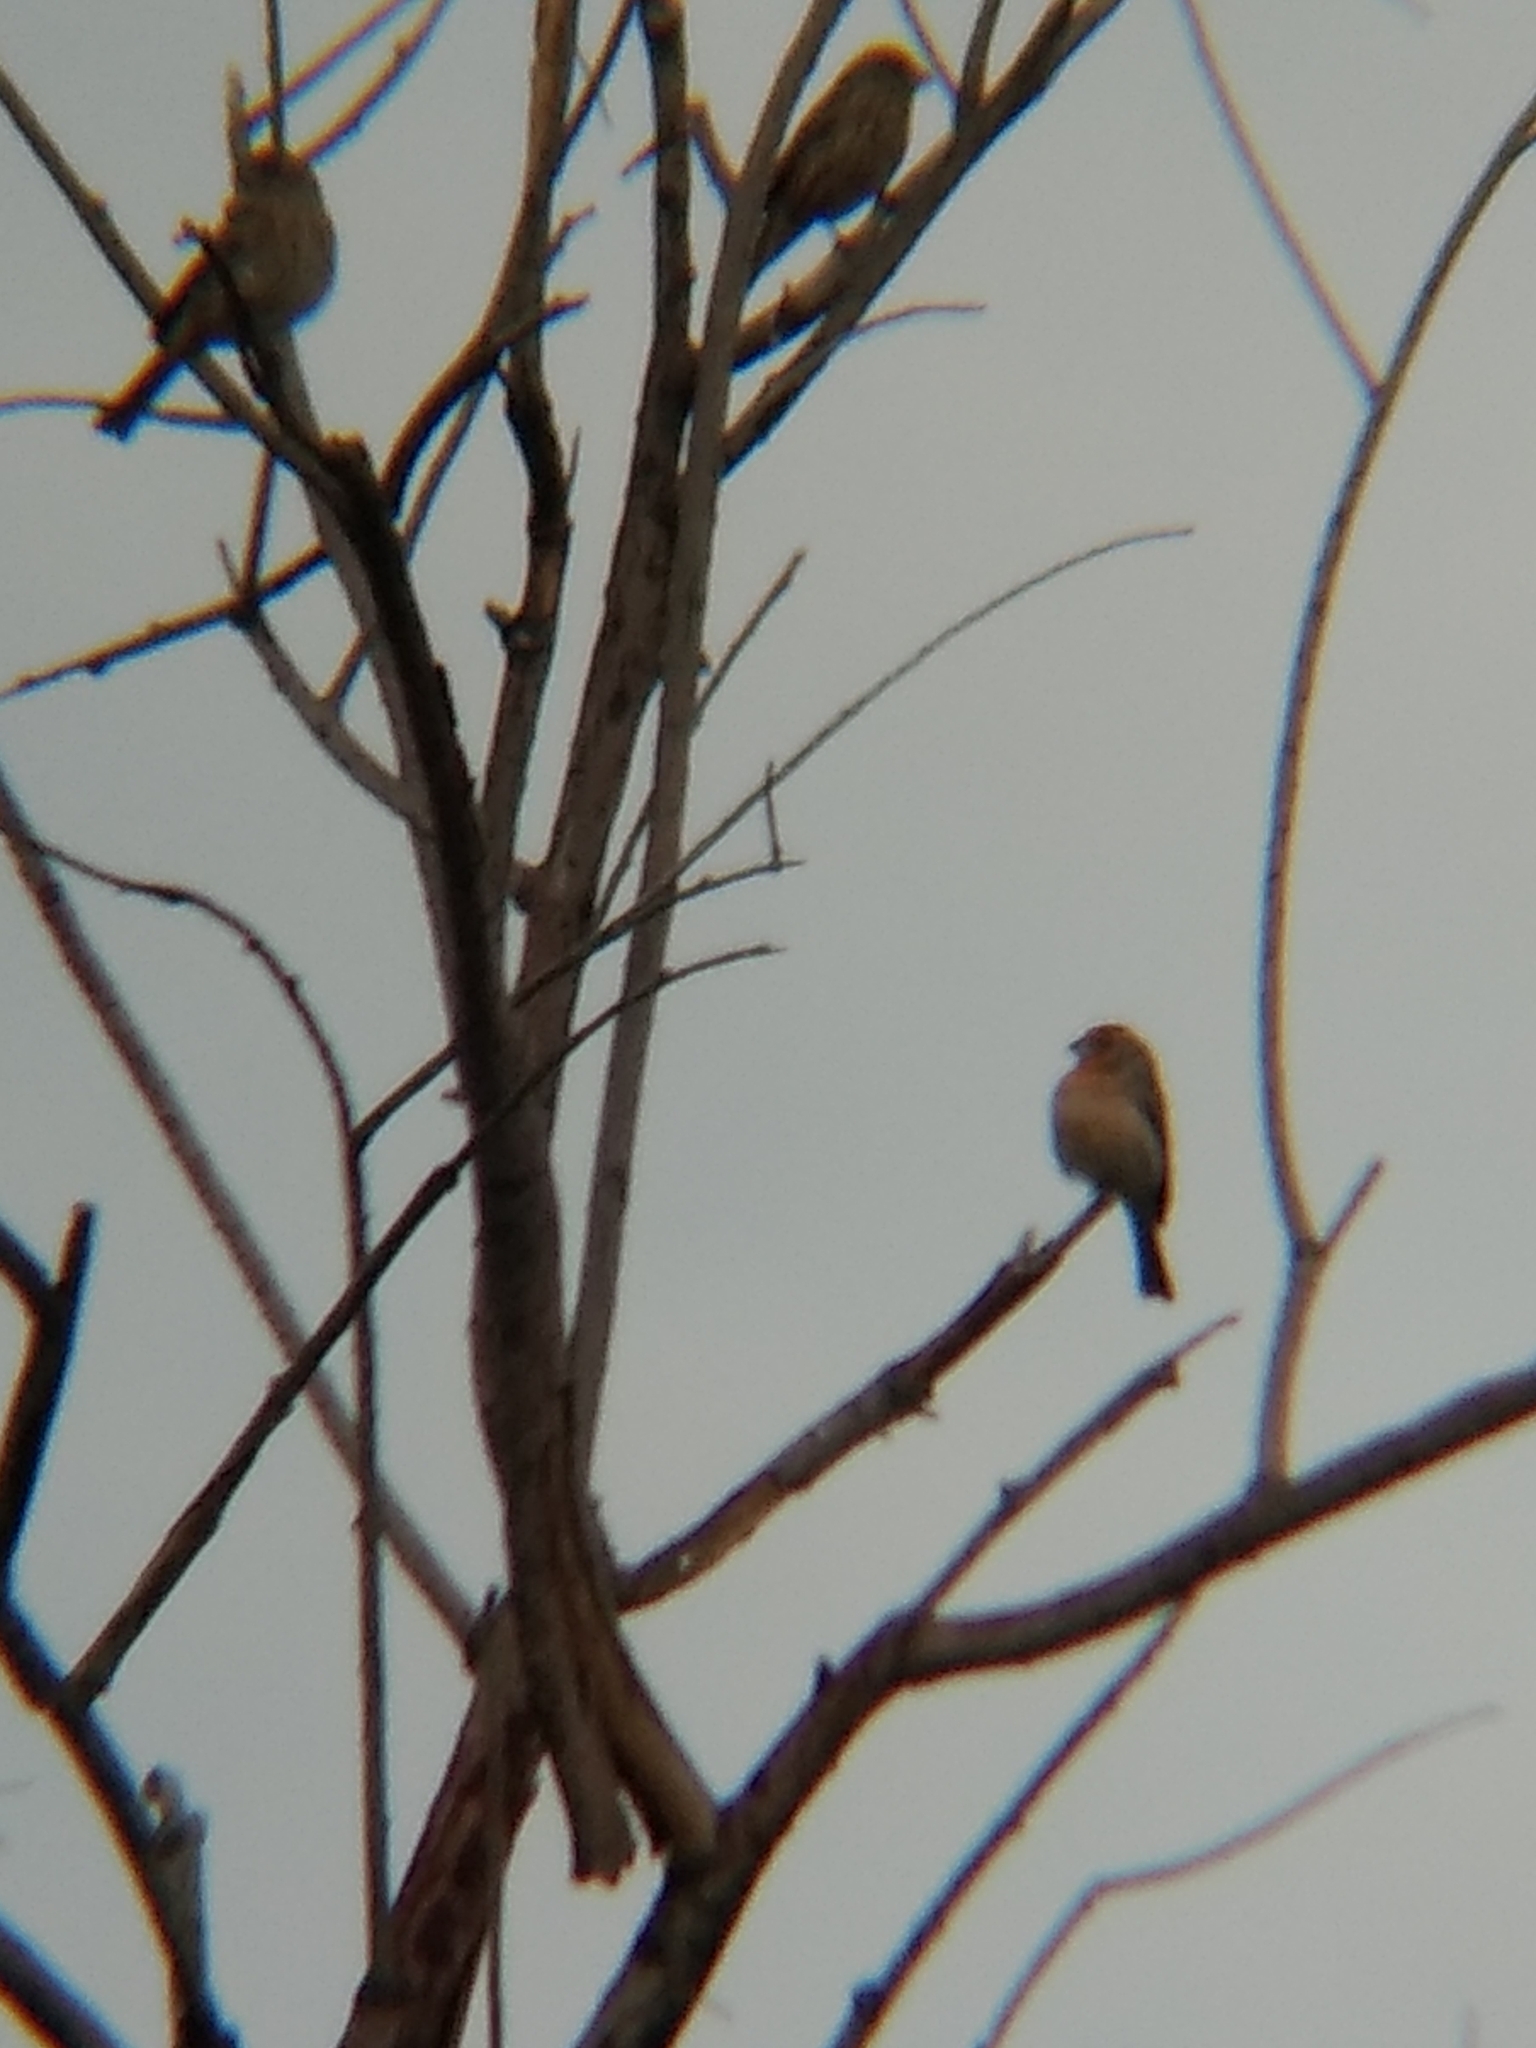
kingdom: Animalia
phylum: Chordata
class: Aves
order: Passeriformes
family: Fringillidae
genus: Haemorhous
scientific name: Haemorhous mexicanus
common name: House finch
